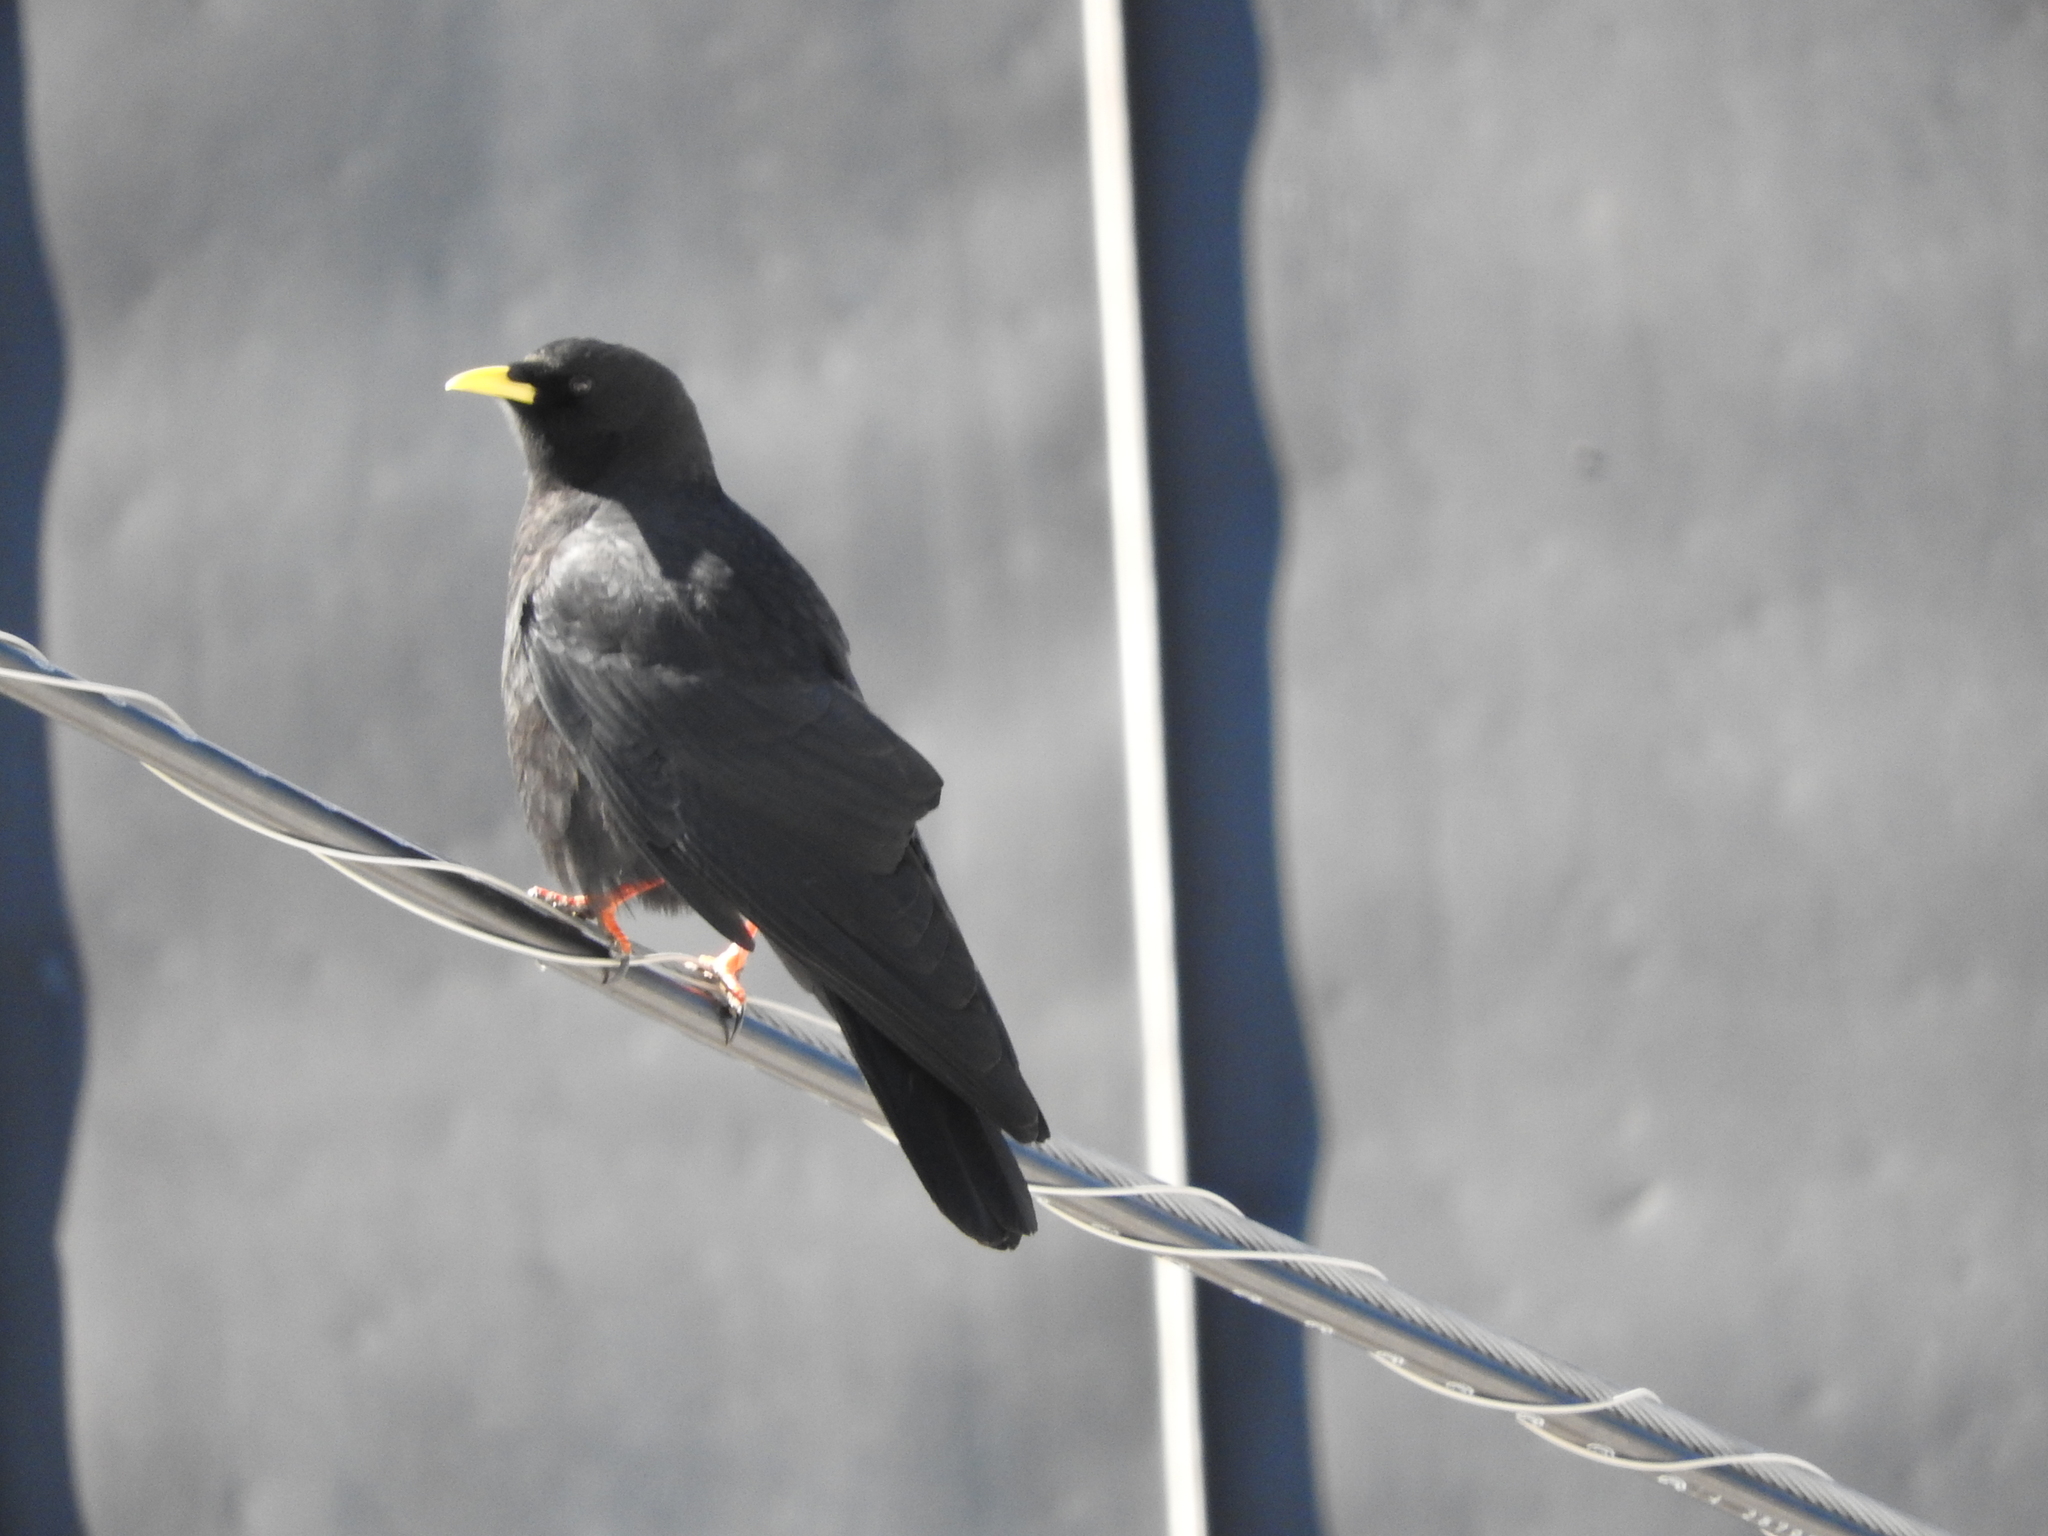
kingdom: Animalia
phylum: Chordata
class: Aves
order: Passeriformes
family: Corvidae
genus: Pyrrhocorax
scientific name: Pyrrhocorax graculus
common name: Alpine chough
